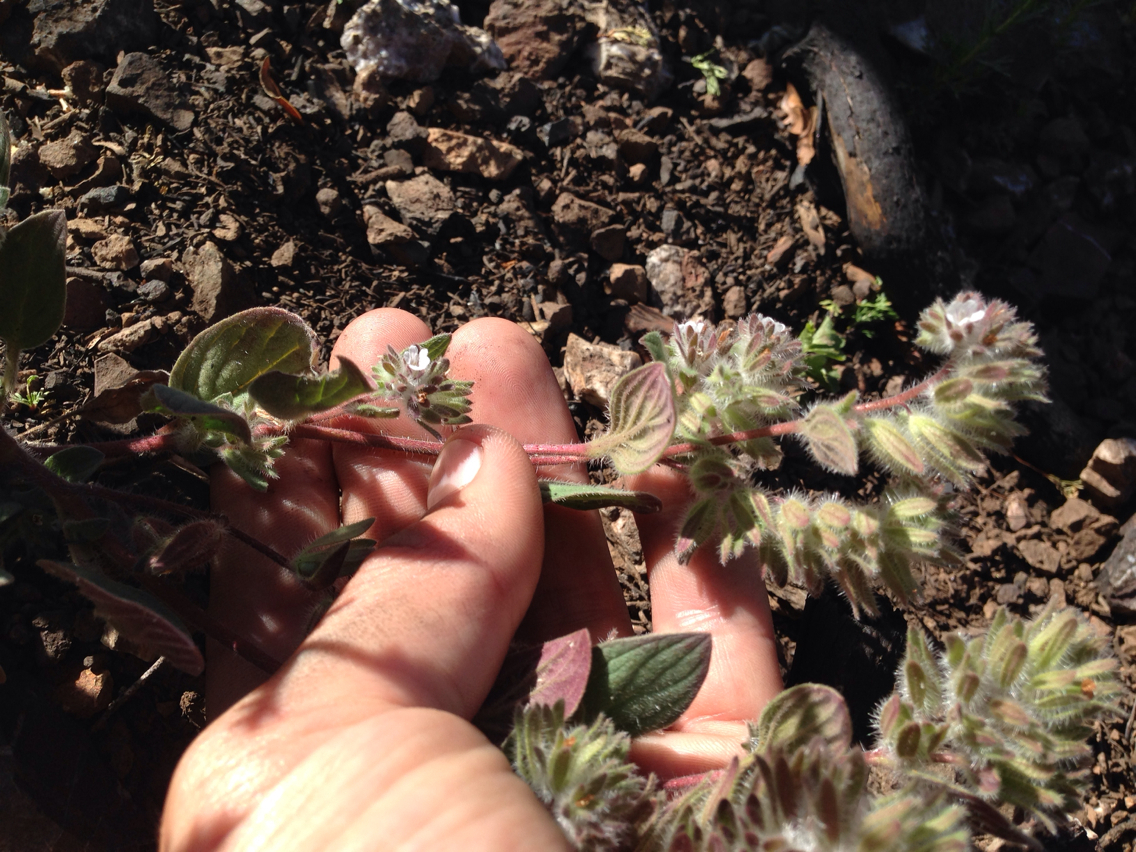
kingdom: Plantae
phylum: Tracheophyta
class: Magnoliopsida
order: Boraginales
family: Hydrophyllaceae
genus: Phacelia
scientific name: Phacelia phacelioides
